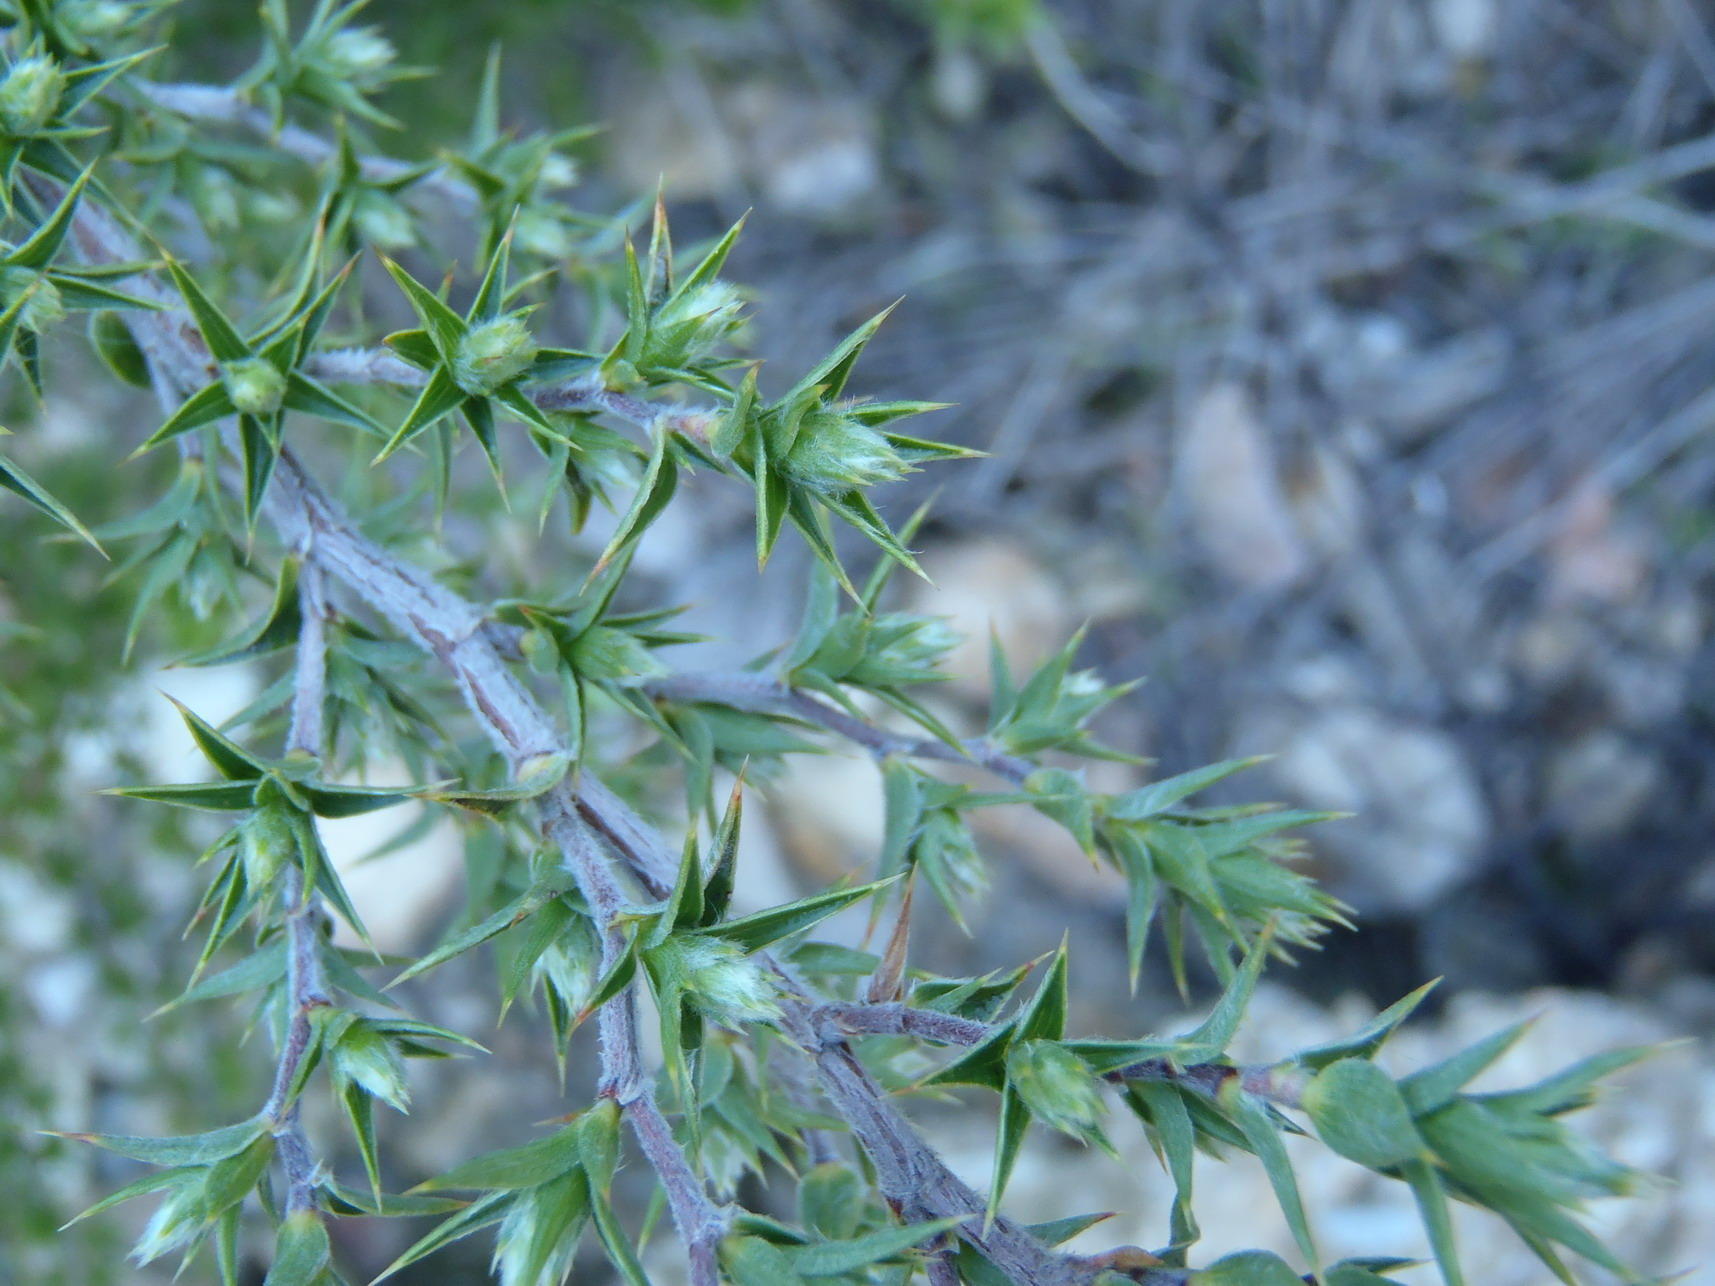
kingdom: Plantae
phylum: Tracheophyta
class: Magnoliopsida
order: Rosales
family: Rosaceae
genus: Cliffortia
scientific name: Cliffortia ruscifolia
